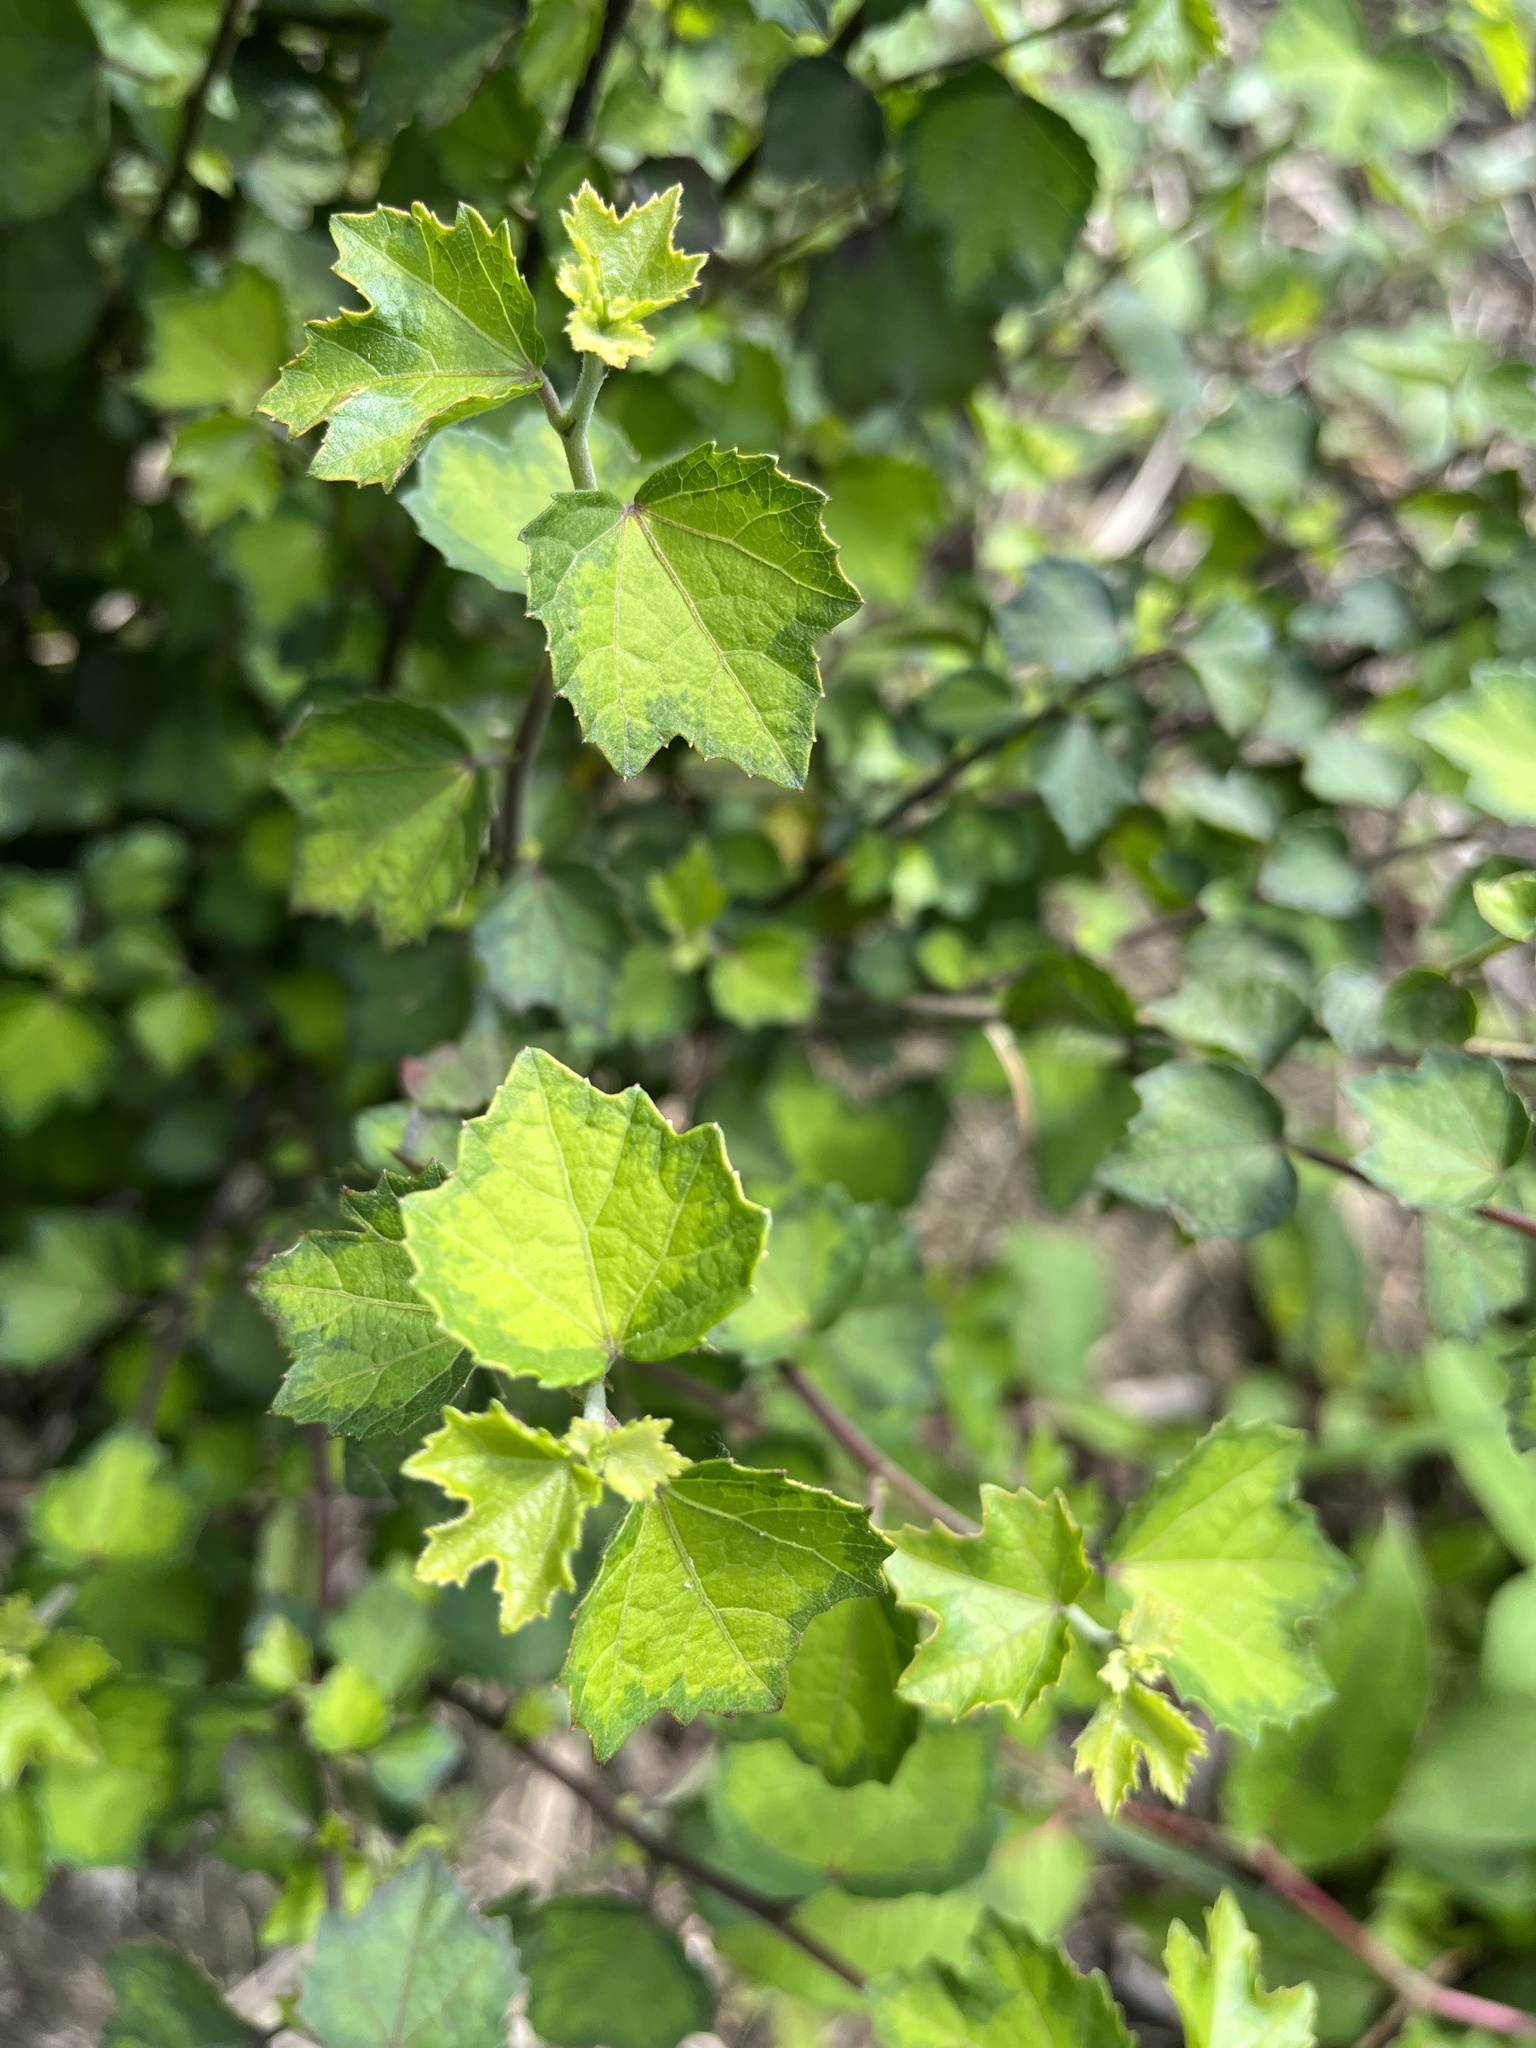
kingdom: Plantae
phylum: Tracheophyta
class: Magnoliopsida
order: Malvales
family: Malvaceae
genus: Urena
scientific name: Urena procumbens
